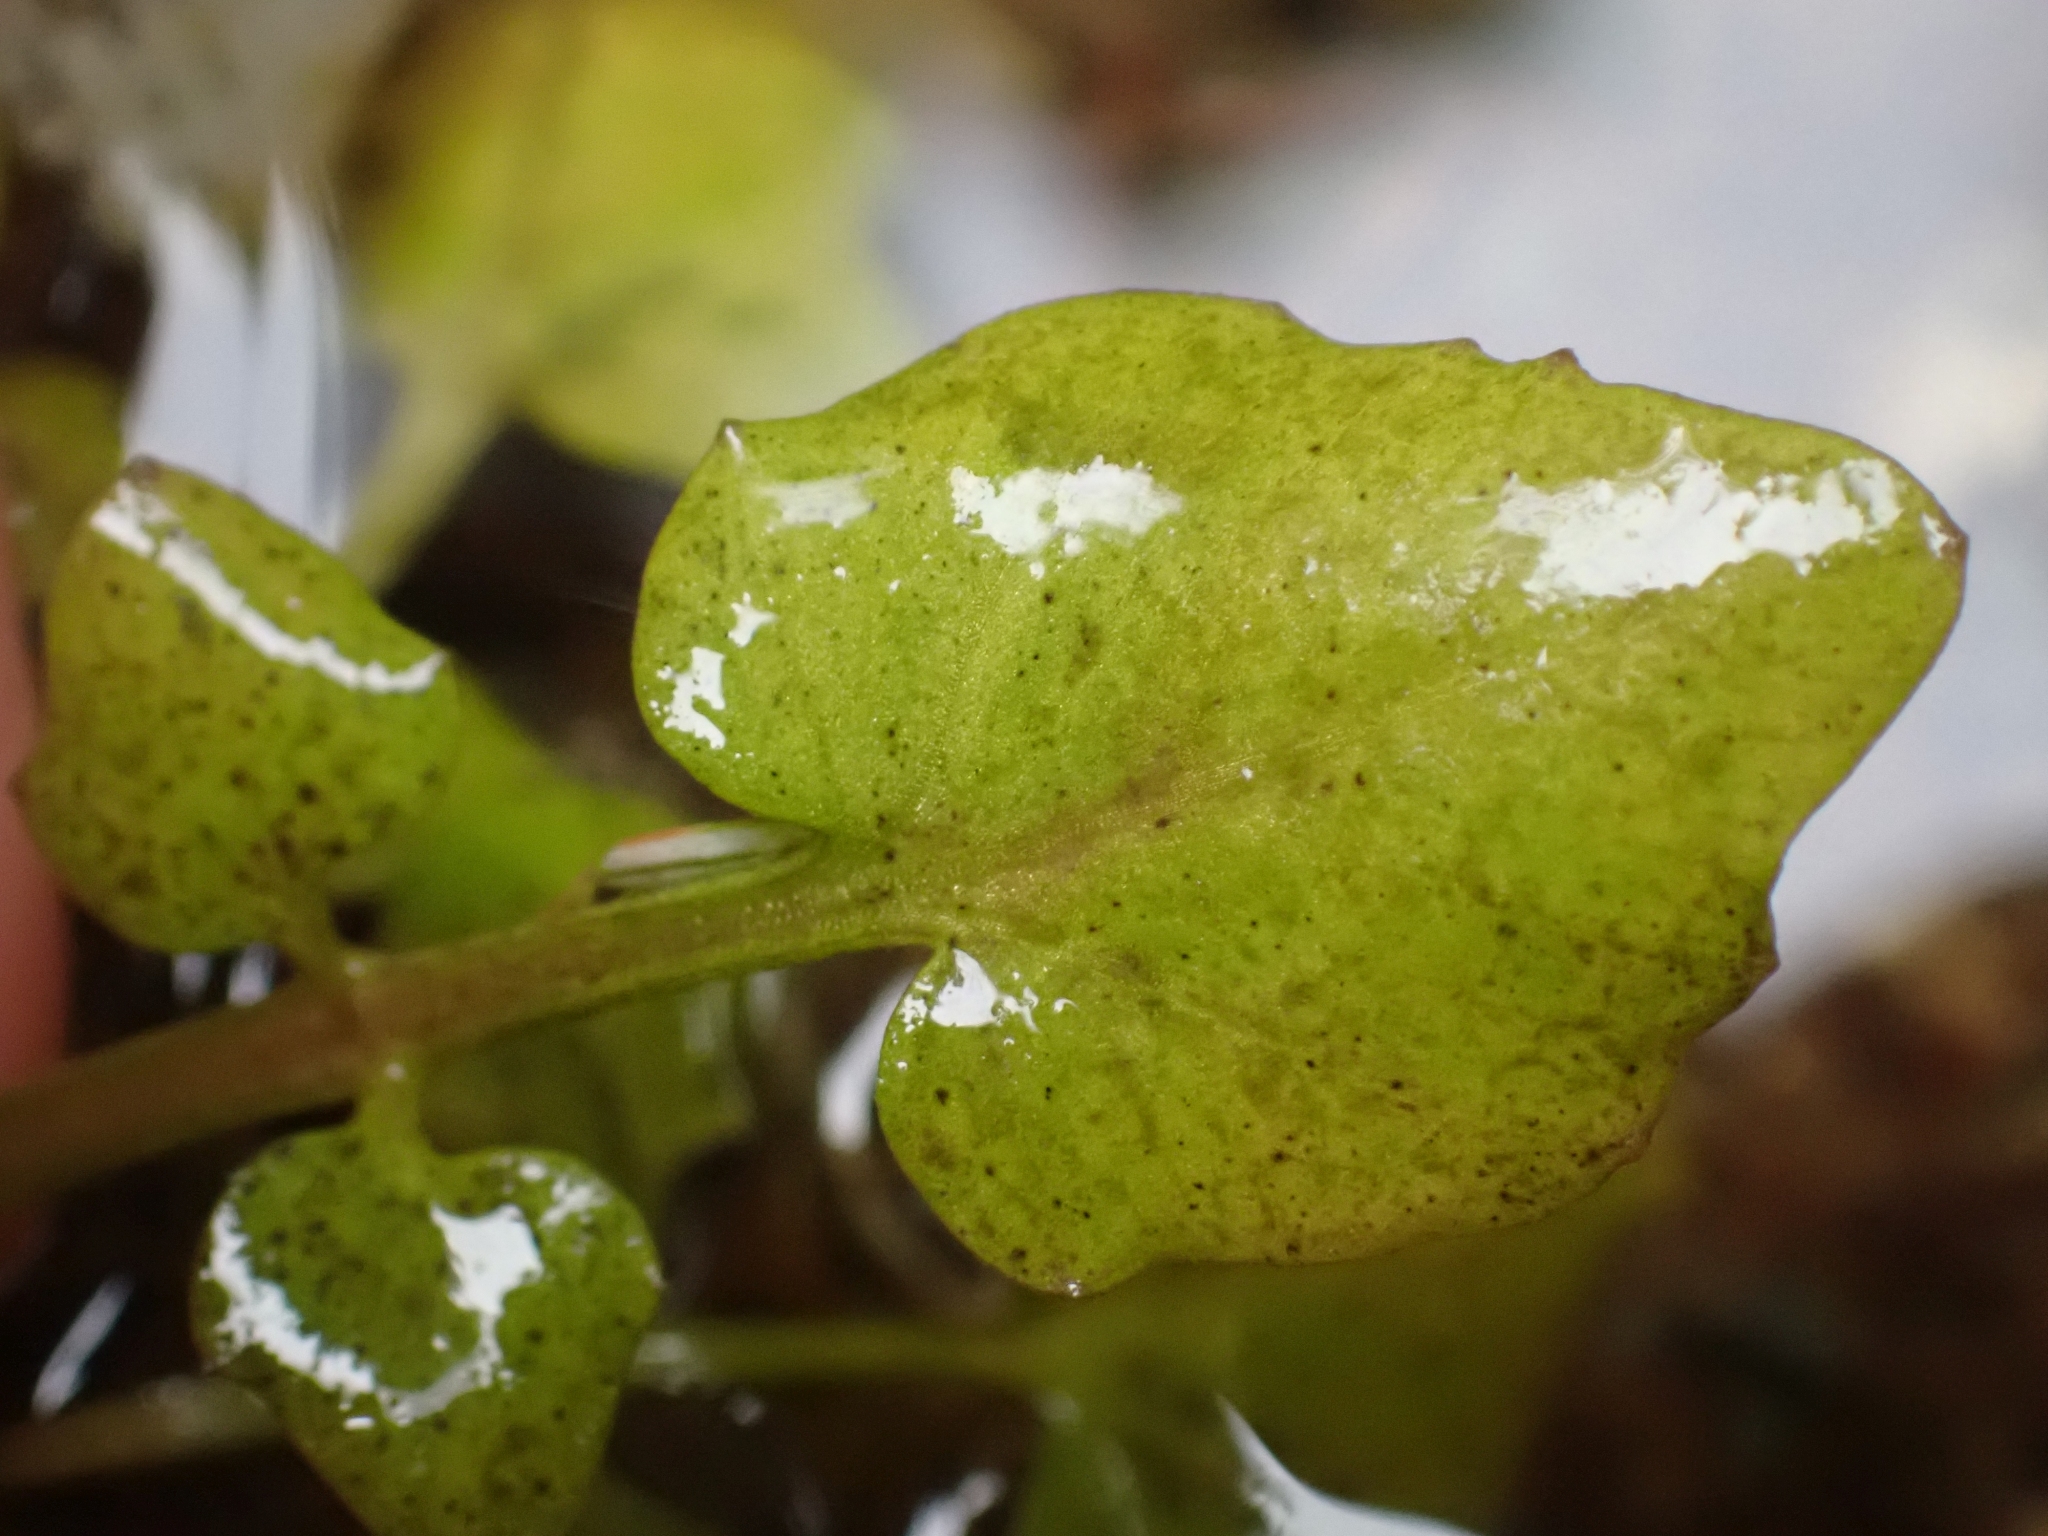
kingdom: Plantae
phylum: Tracheophyta
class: Magnoliopsida
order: Brassicales
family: Brassicaceae
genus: Cardamine
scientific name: Cardamine breweri
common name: Brewer's bittercress
